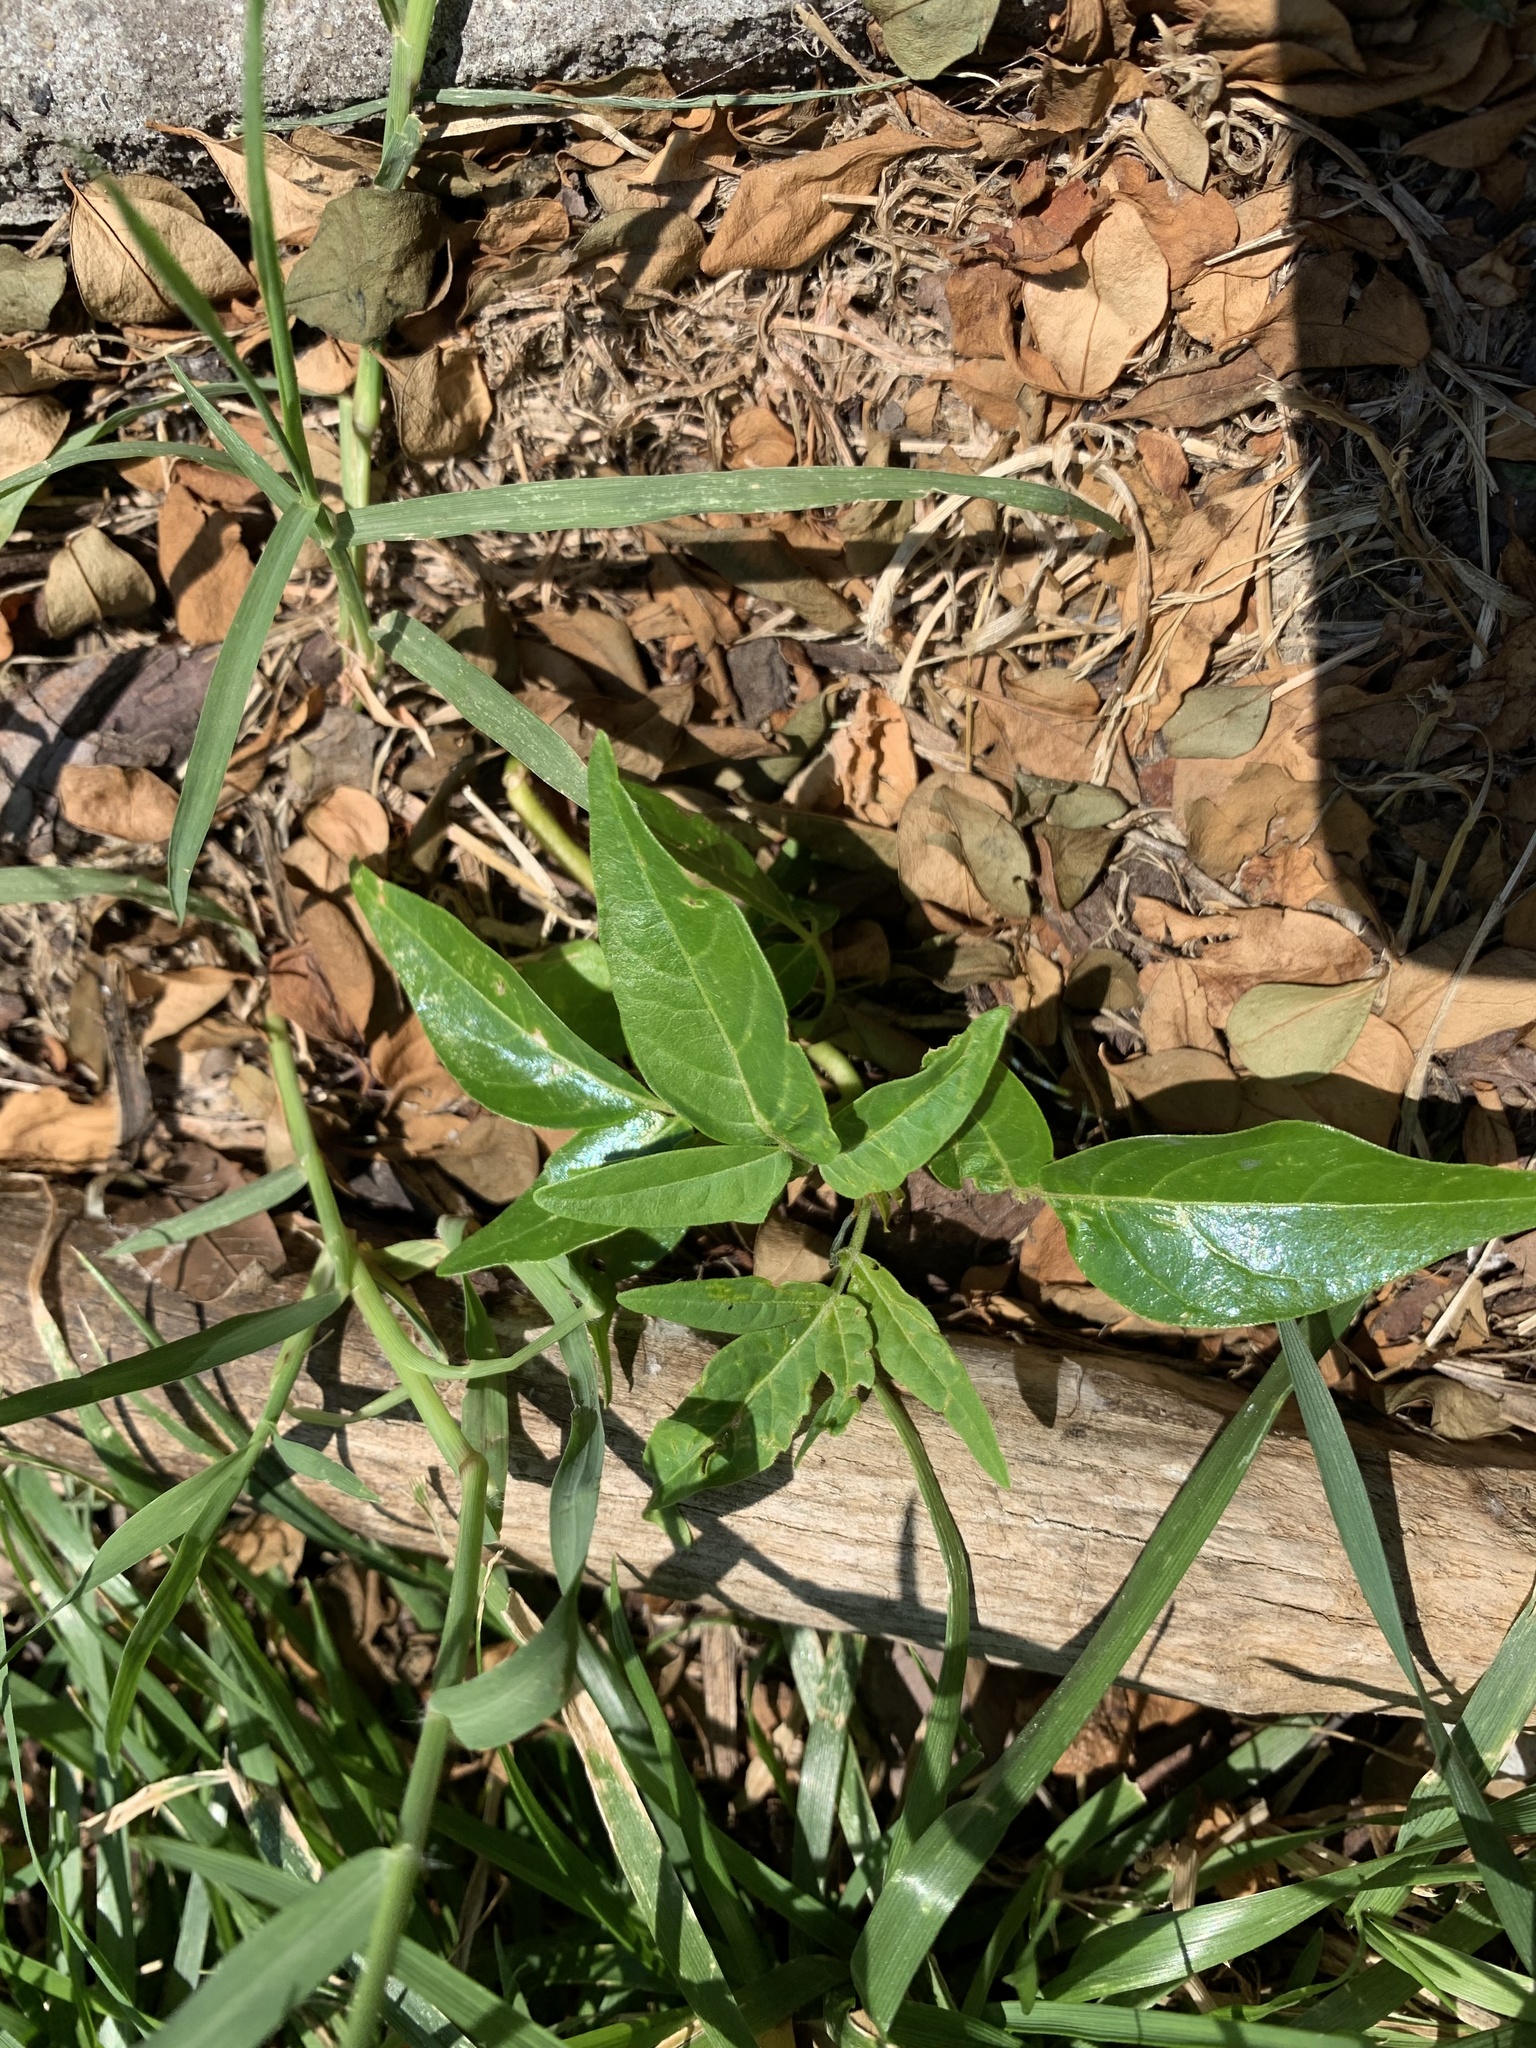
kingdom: Plantae
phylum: Tracheophyta
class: Magnoliopsida
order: Sapindales
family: Simaroubaceae
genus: Ailanthus
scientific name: Ailanthus altissima
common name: Tree-of-heaven
